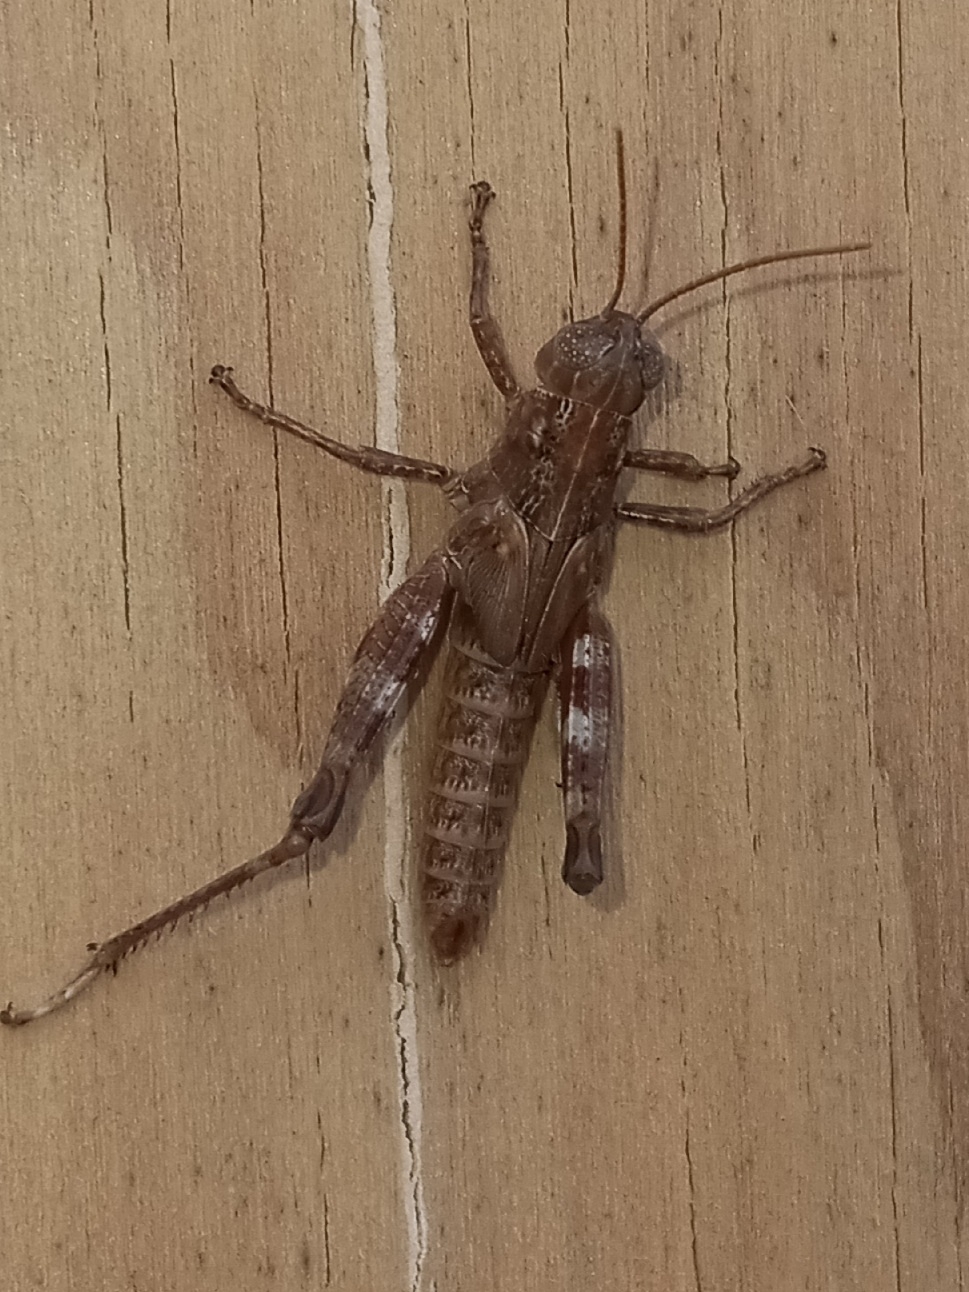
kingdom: Animalia
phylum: Arthropoda
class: Insecta
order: Orthoptera
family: Acrididae
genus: Melanoplus
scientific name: Melanoplus punctulatus
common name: Pine-tree spur-throat grasshopper
